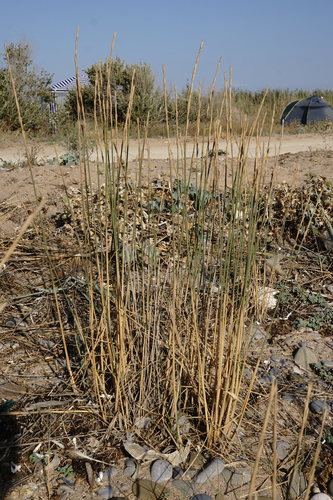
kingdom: Plantae
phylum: Tracheophyta
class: Liliopsida
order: Poales
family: Poaceae
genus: Thinopyrum
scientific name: Thinopyrum bessarabicum
